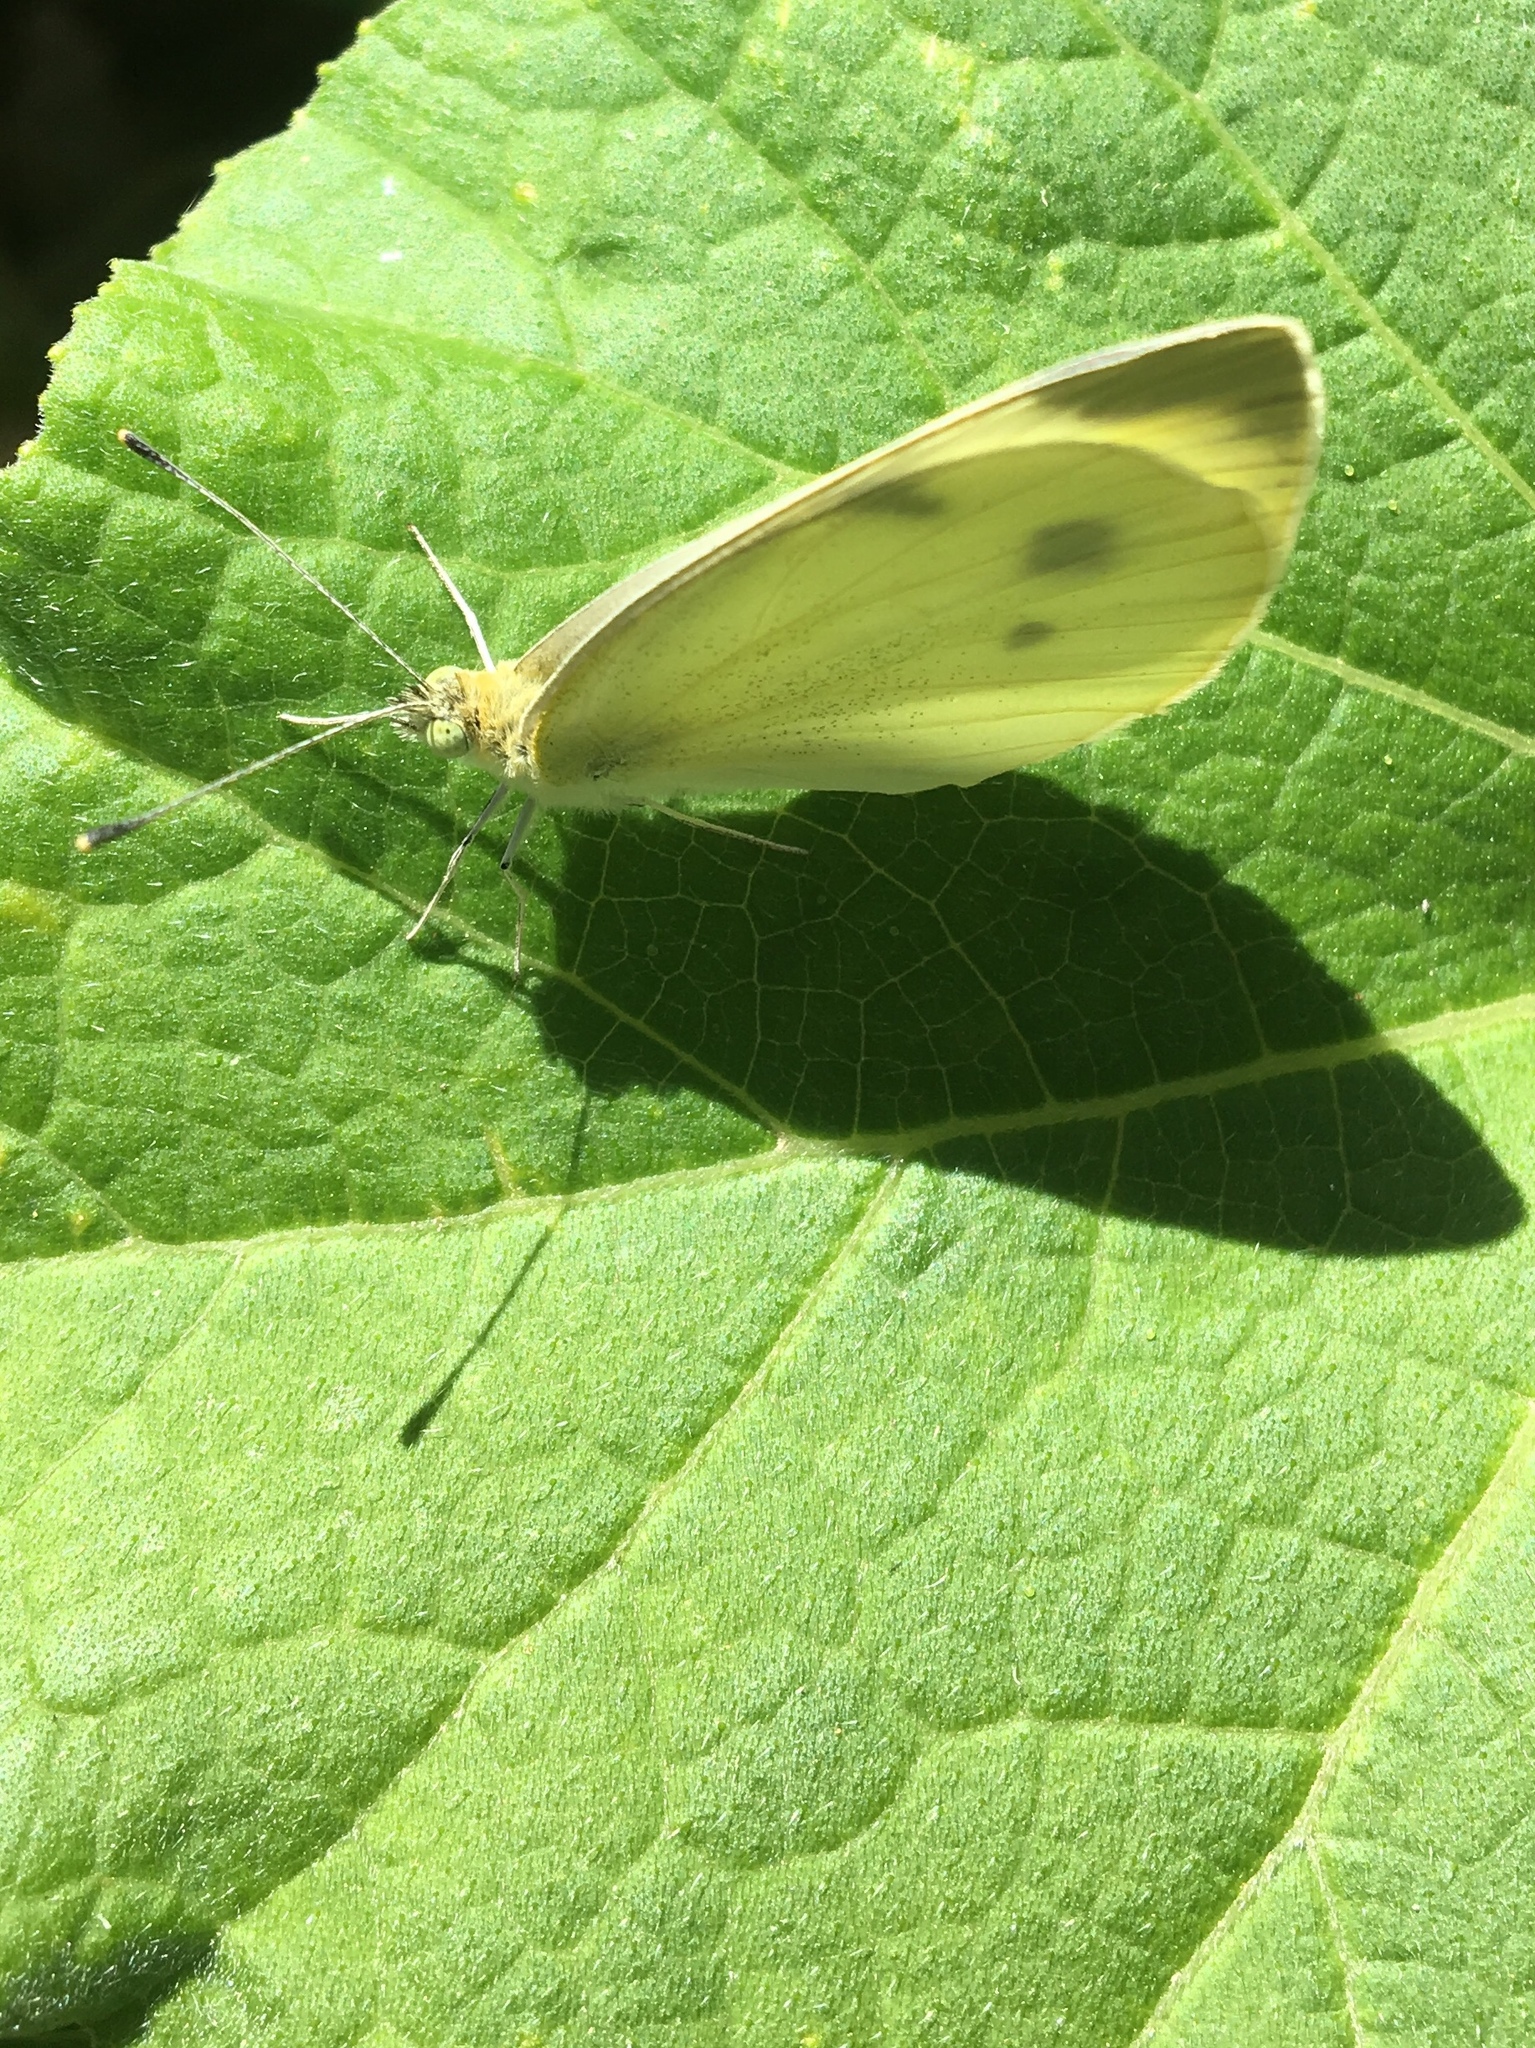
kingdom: Animalia
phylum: Arthropoda
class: Insecta
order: Lepidoptera
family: Pieridae
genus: Pieris
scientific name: Pieris rapae
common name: Small white
